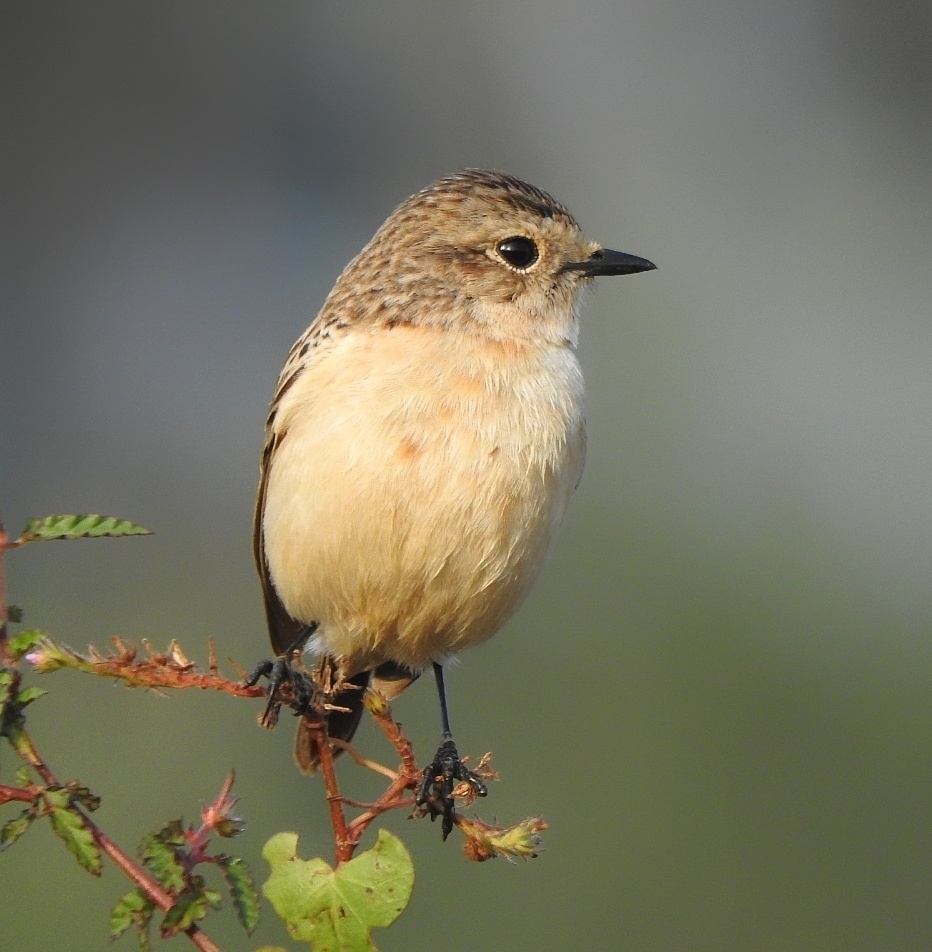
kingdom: Animalia
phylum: Chordata
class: Aves
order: Passeriformes
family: Muscicapidae
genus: Saxicola
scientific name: Saxicola maurus
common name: Siberian stonechat
